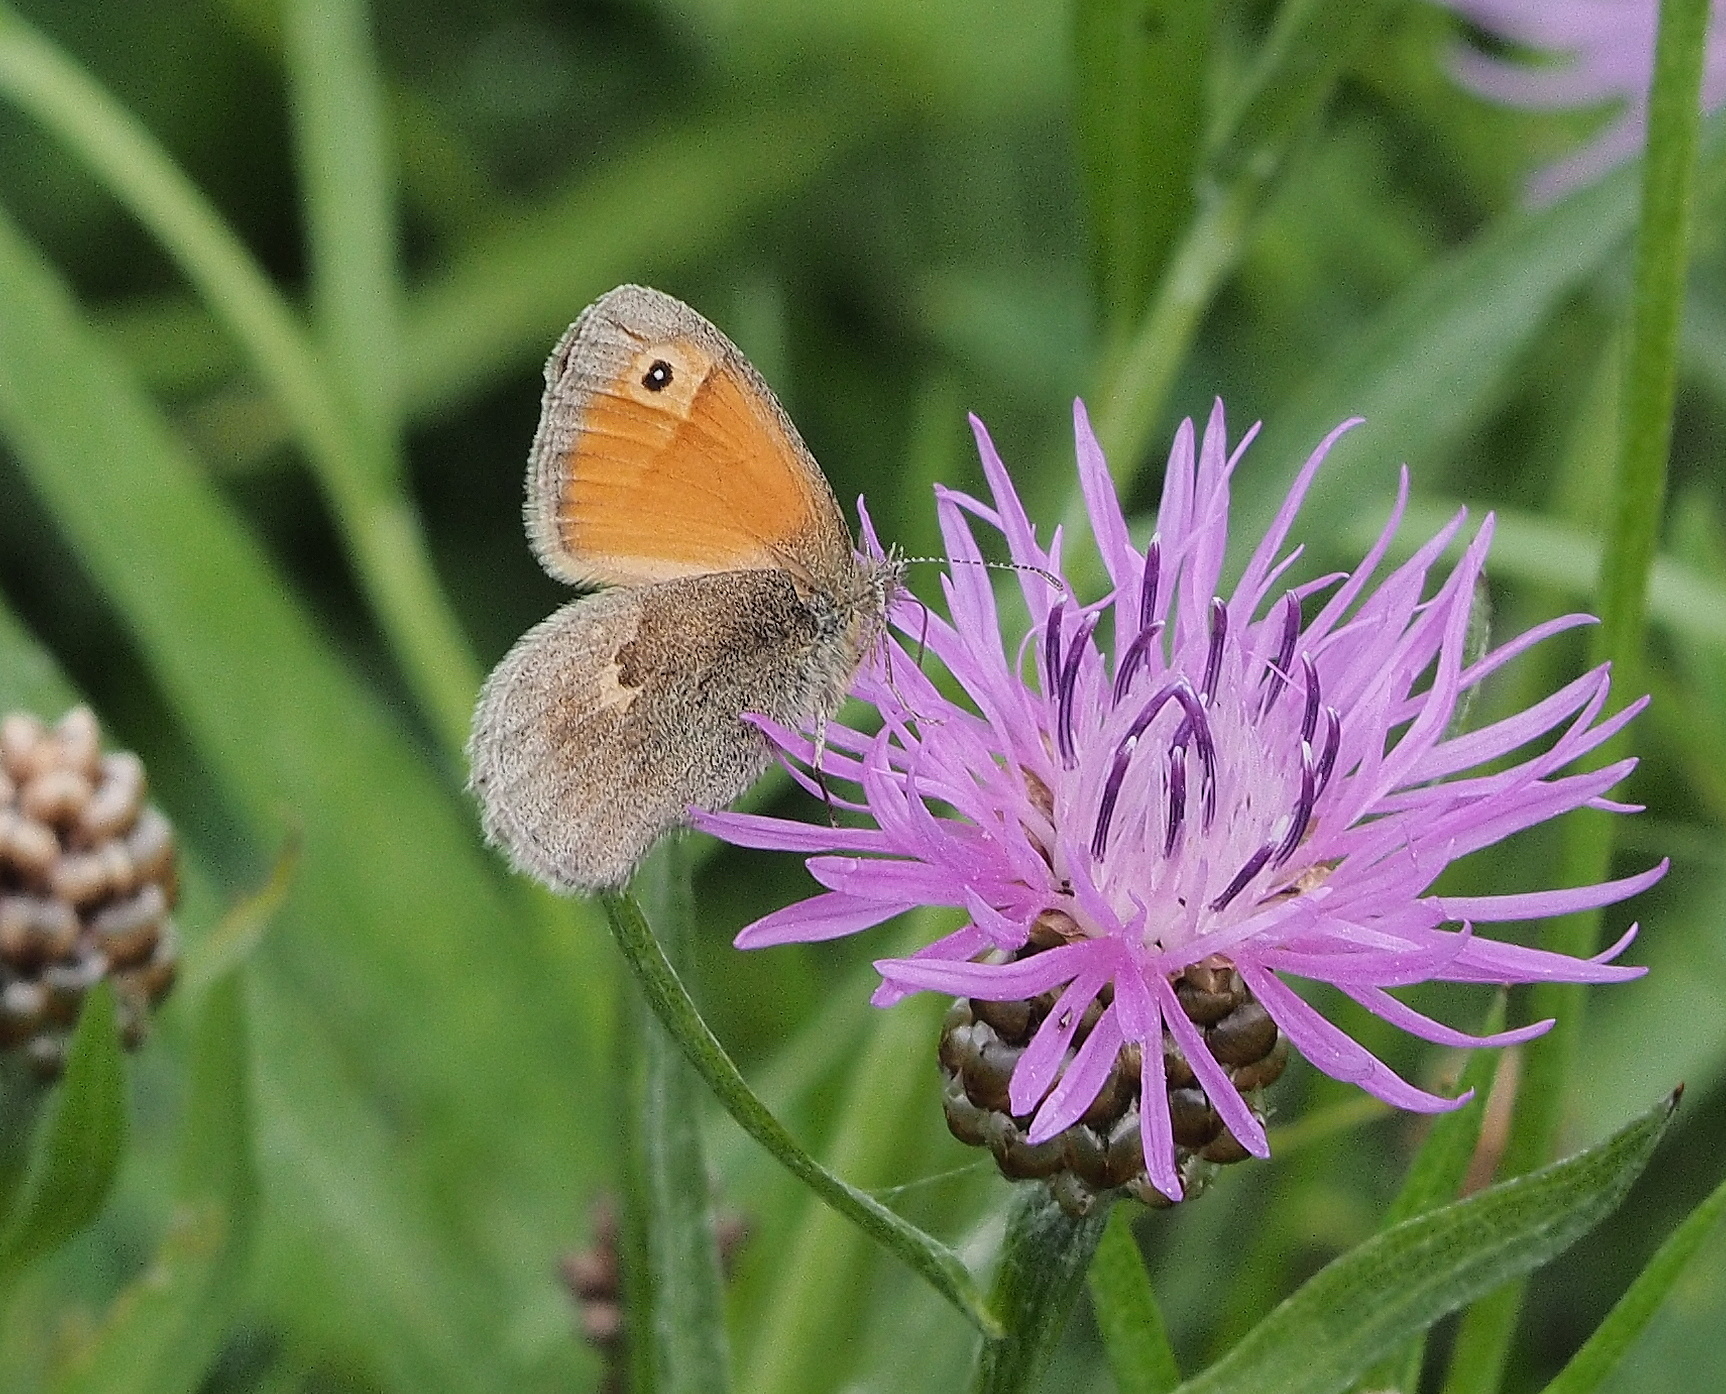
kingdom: Animalia
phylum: Arthropoda
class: Insecta
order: Lepidoptera
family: Nymphalidae
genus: Coenonympha
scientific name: Coenonympha pamphilus
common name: Small heath
